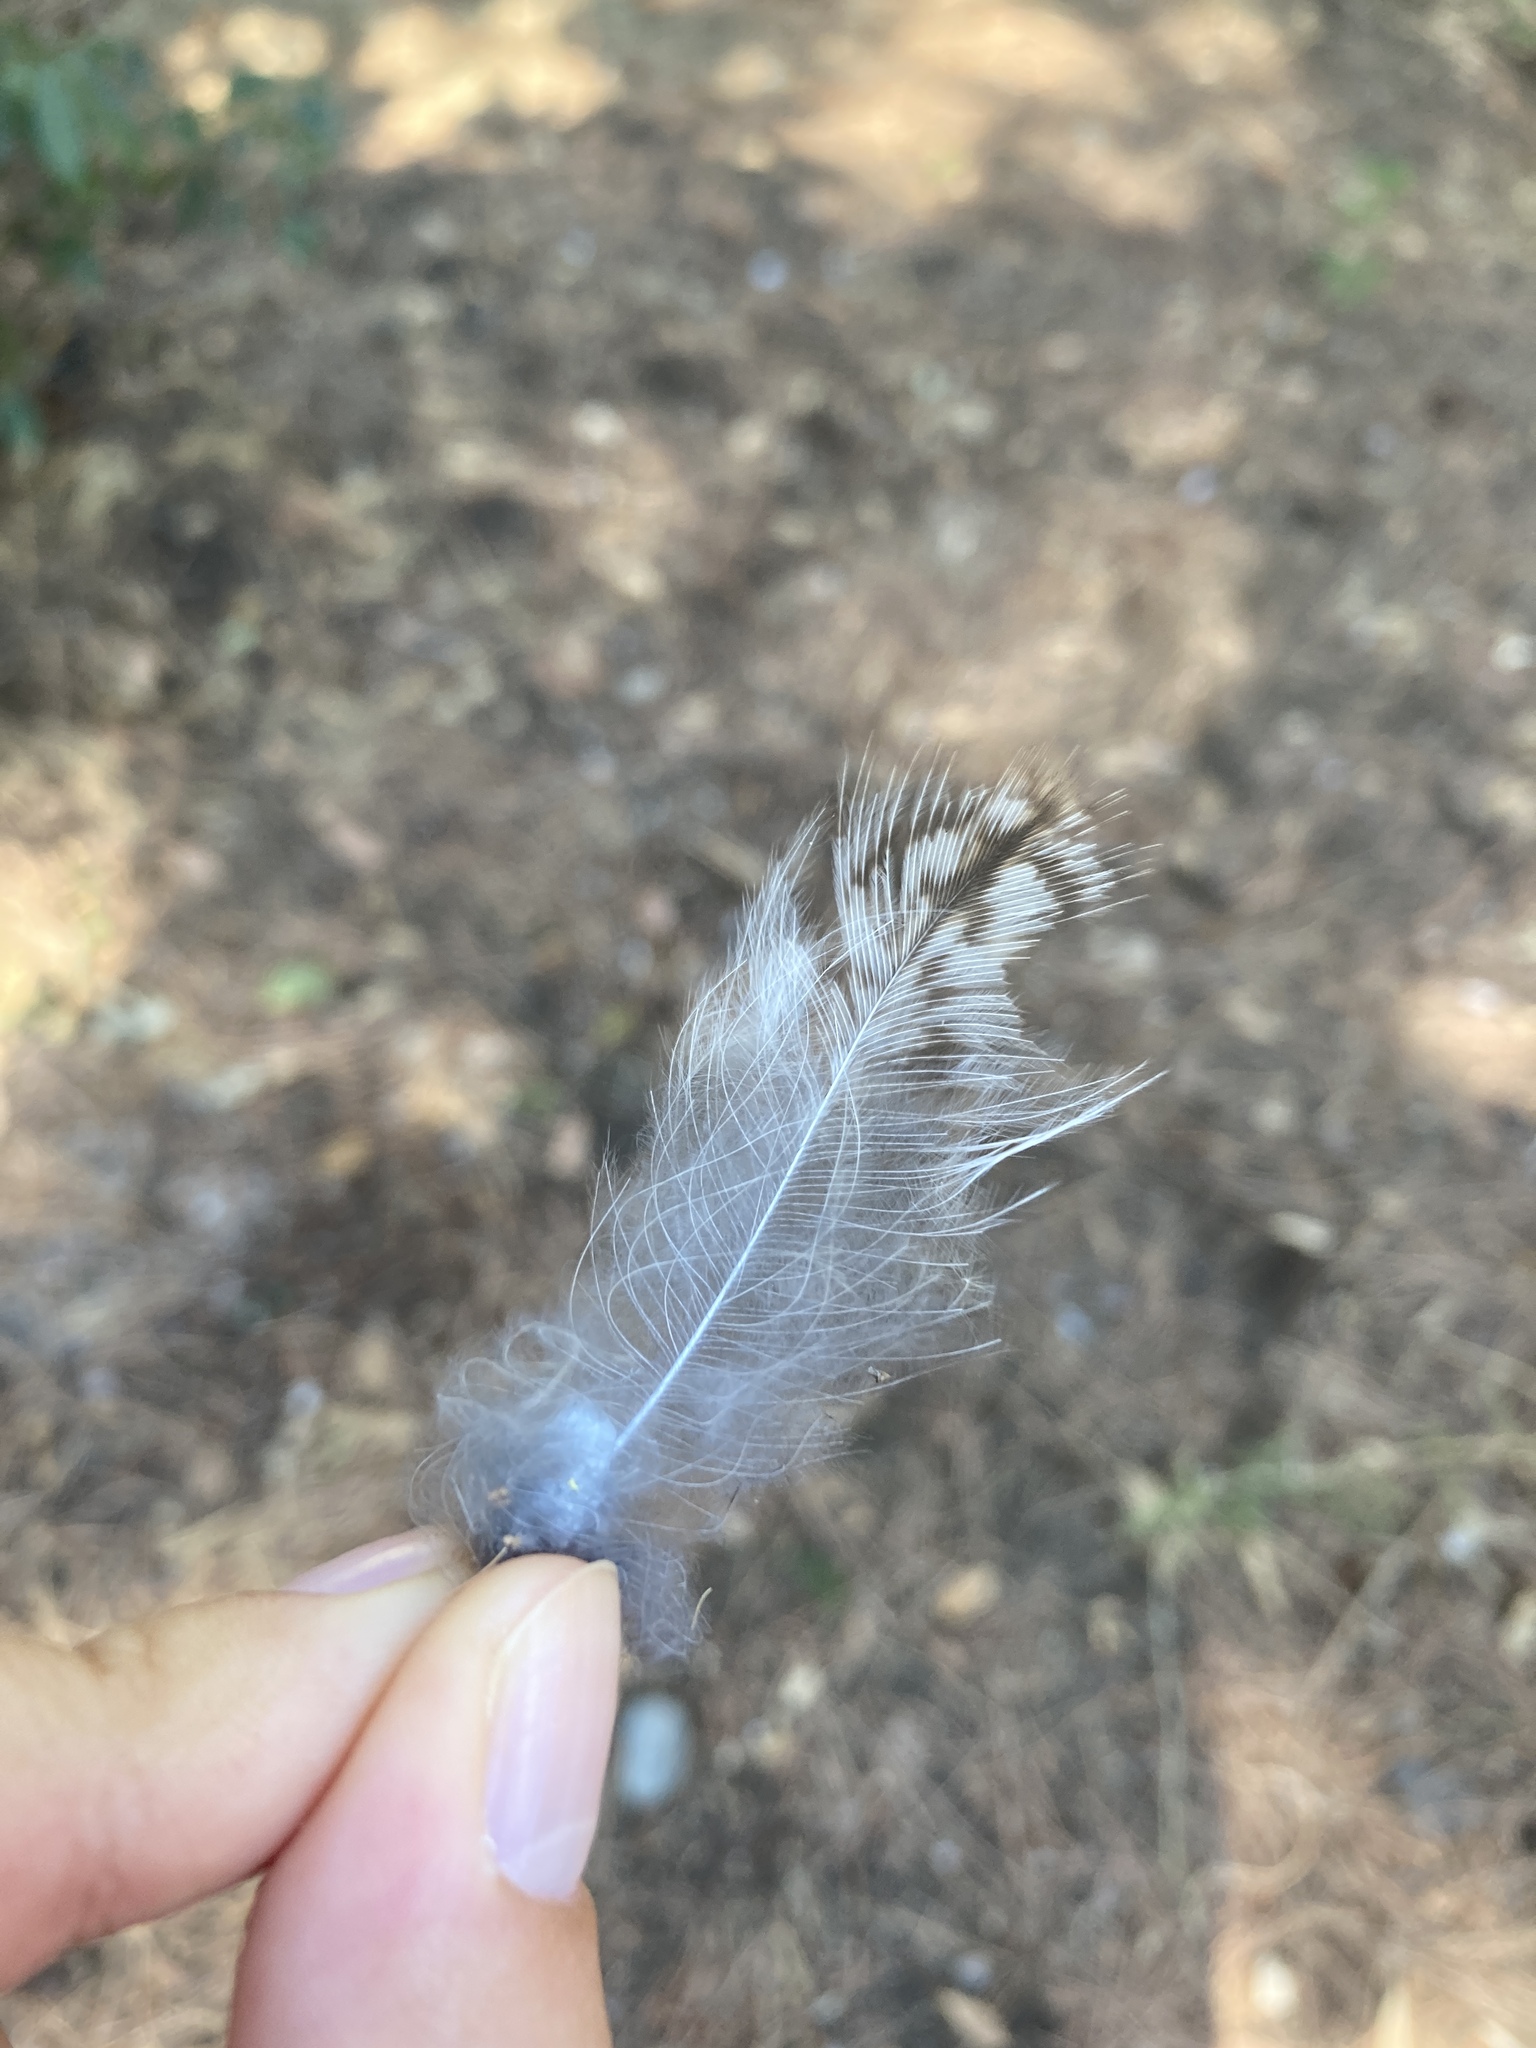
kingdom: Animalia
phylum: Chordata
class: Aves
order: Strigiformes
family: Strigidae
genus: Strix
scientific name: Strix aluco
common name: Tawny owl
